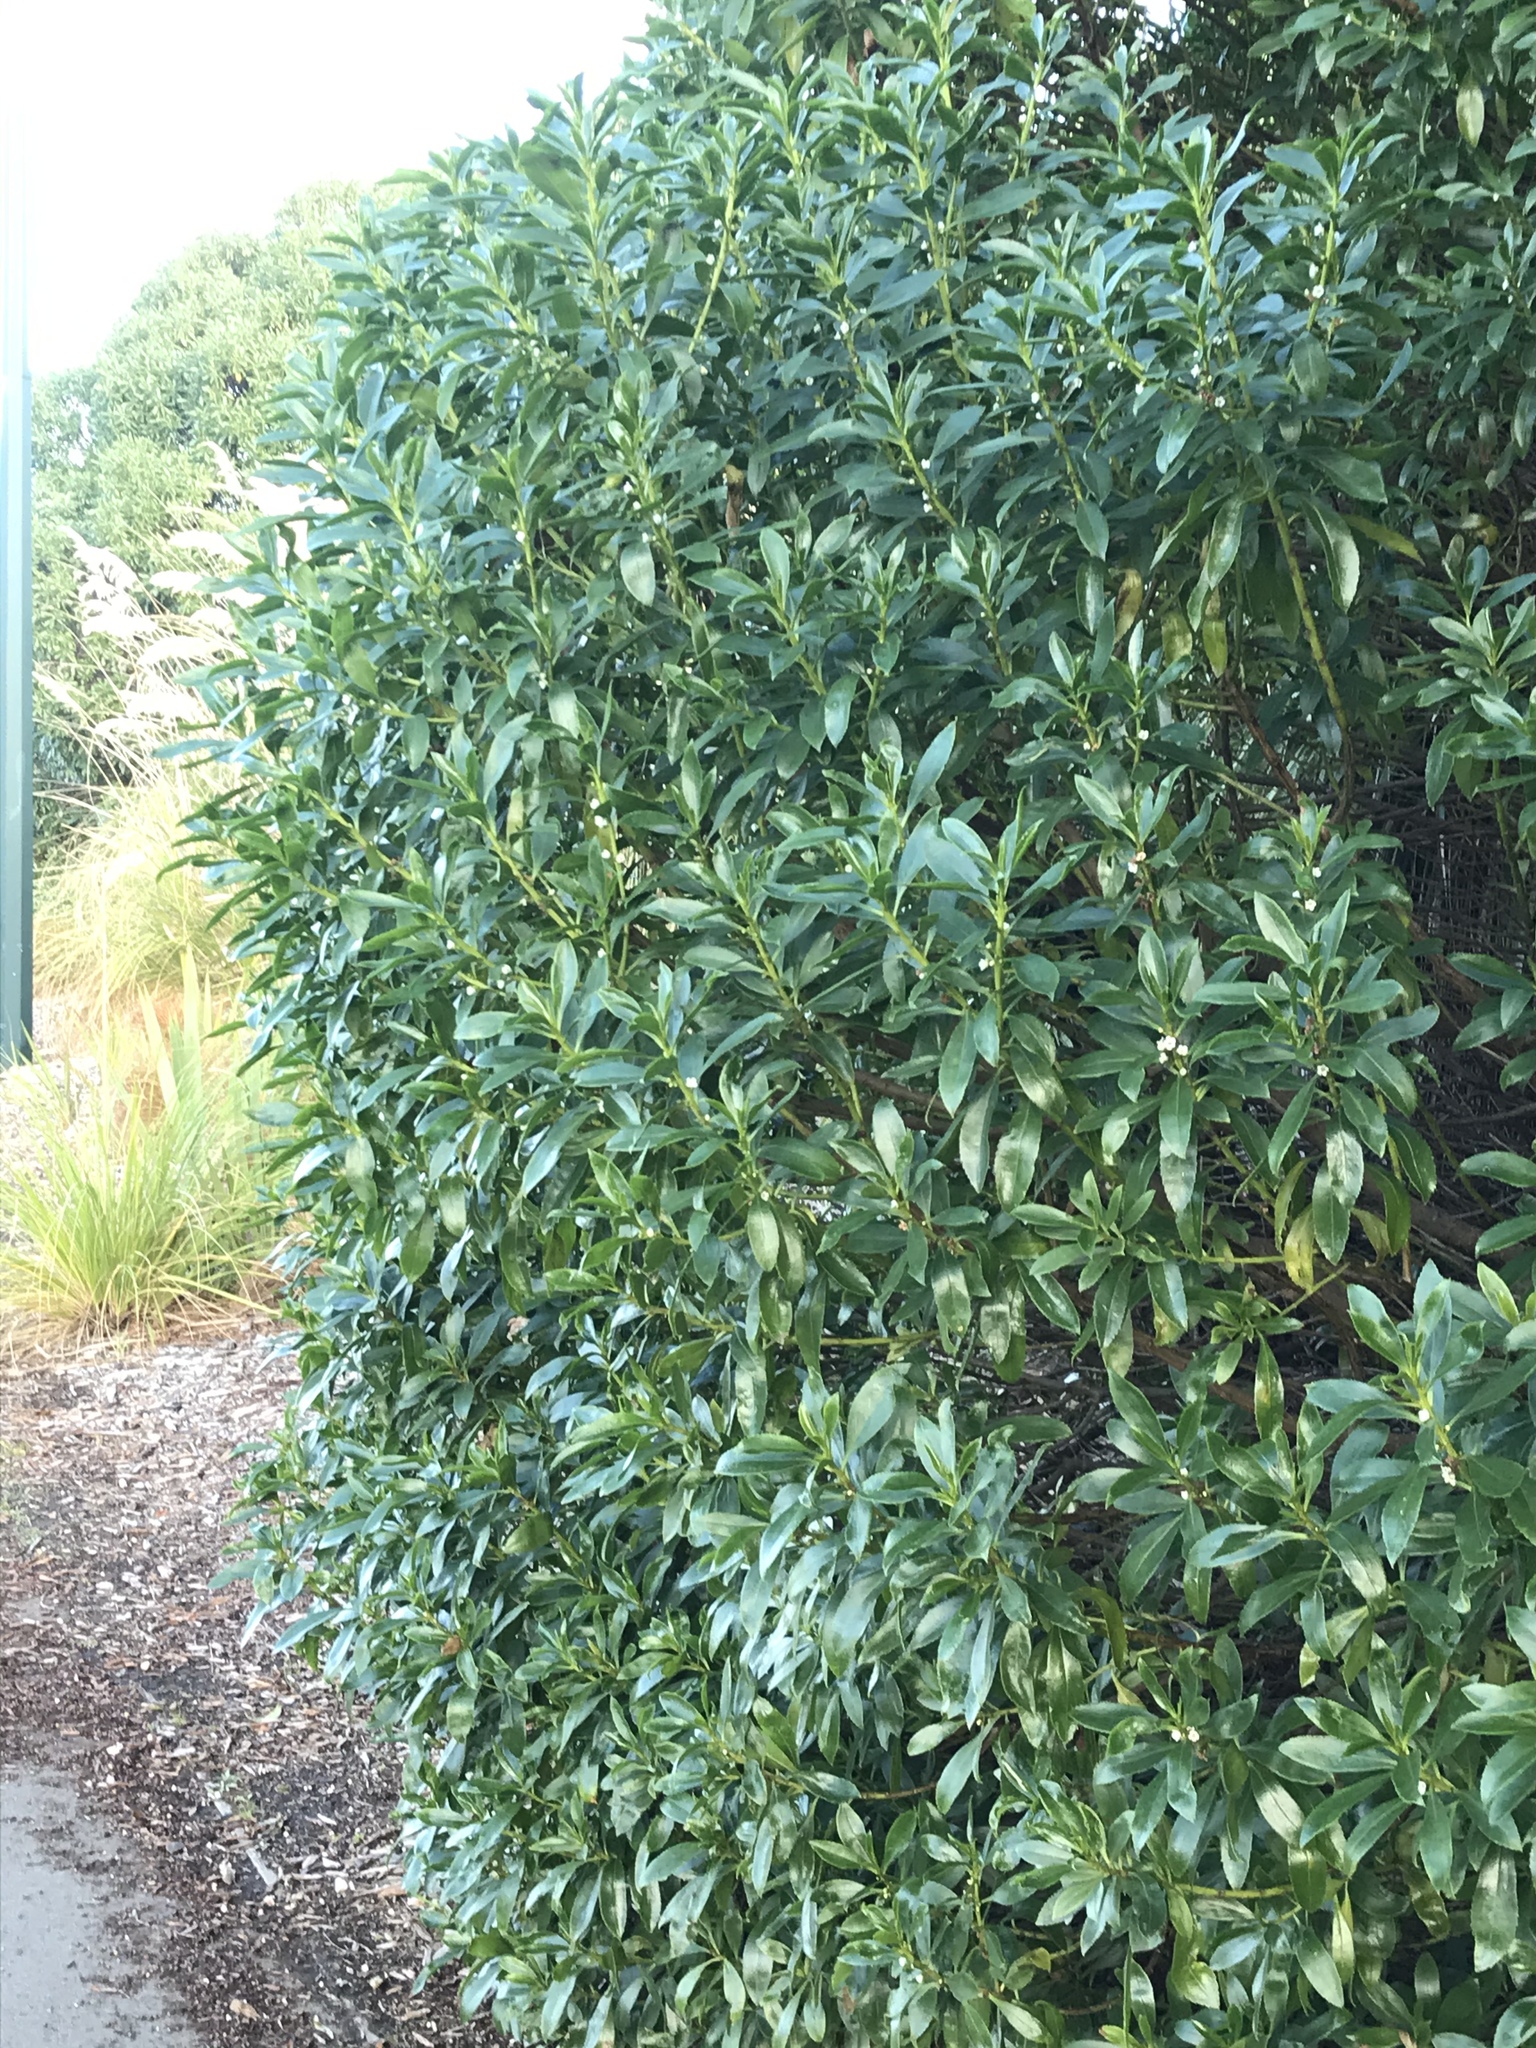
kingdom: Plantae
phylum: Tracheophyta
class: Magnoliopsida
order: Lamiales
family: Scrophulariaceae
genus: Myoporum
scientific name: Myoporum laetum
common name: Ngaio tree
